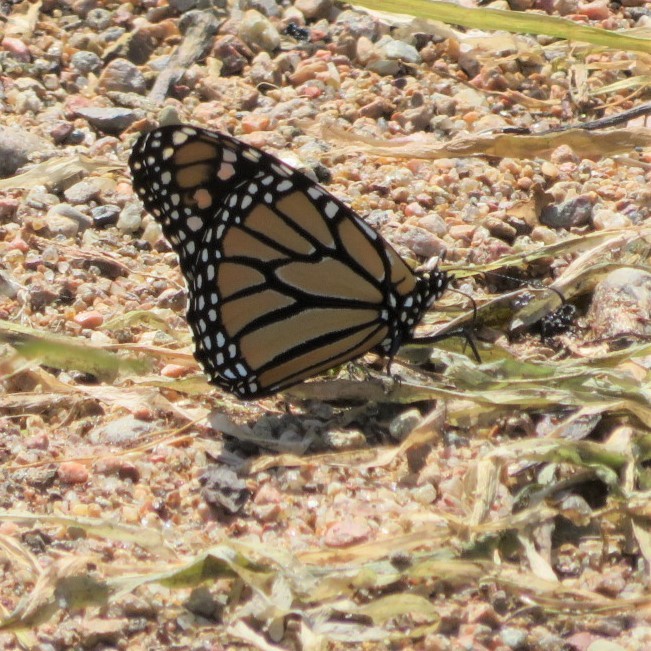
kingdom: Animalia
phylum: Arthropoda
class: Insecta
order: Lepidoptera
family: Nymphalidae
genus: Danaus
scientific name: Danaus plexippus
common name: Monarch
